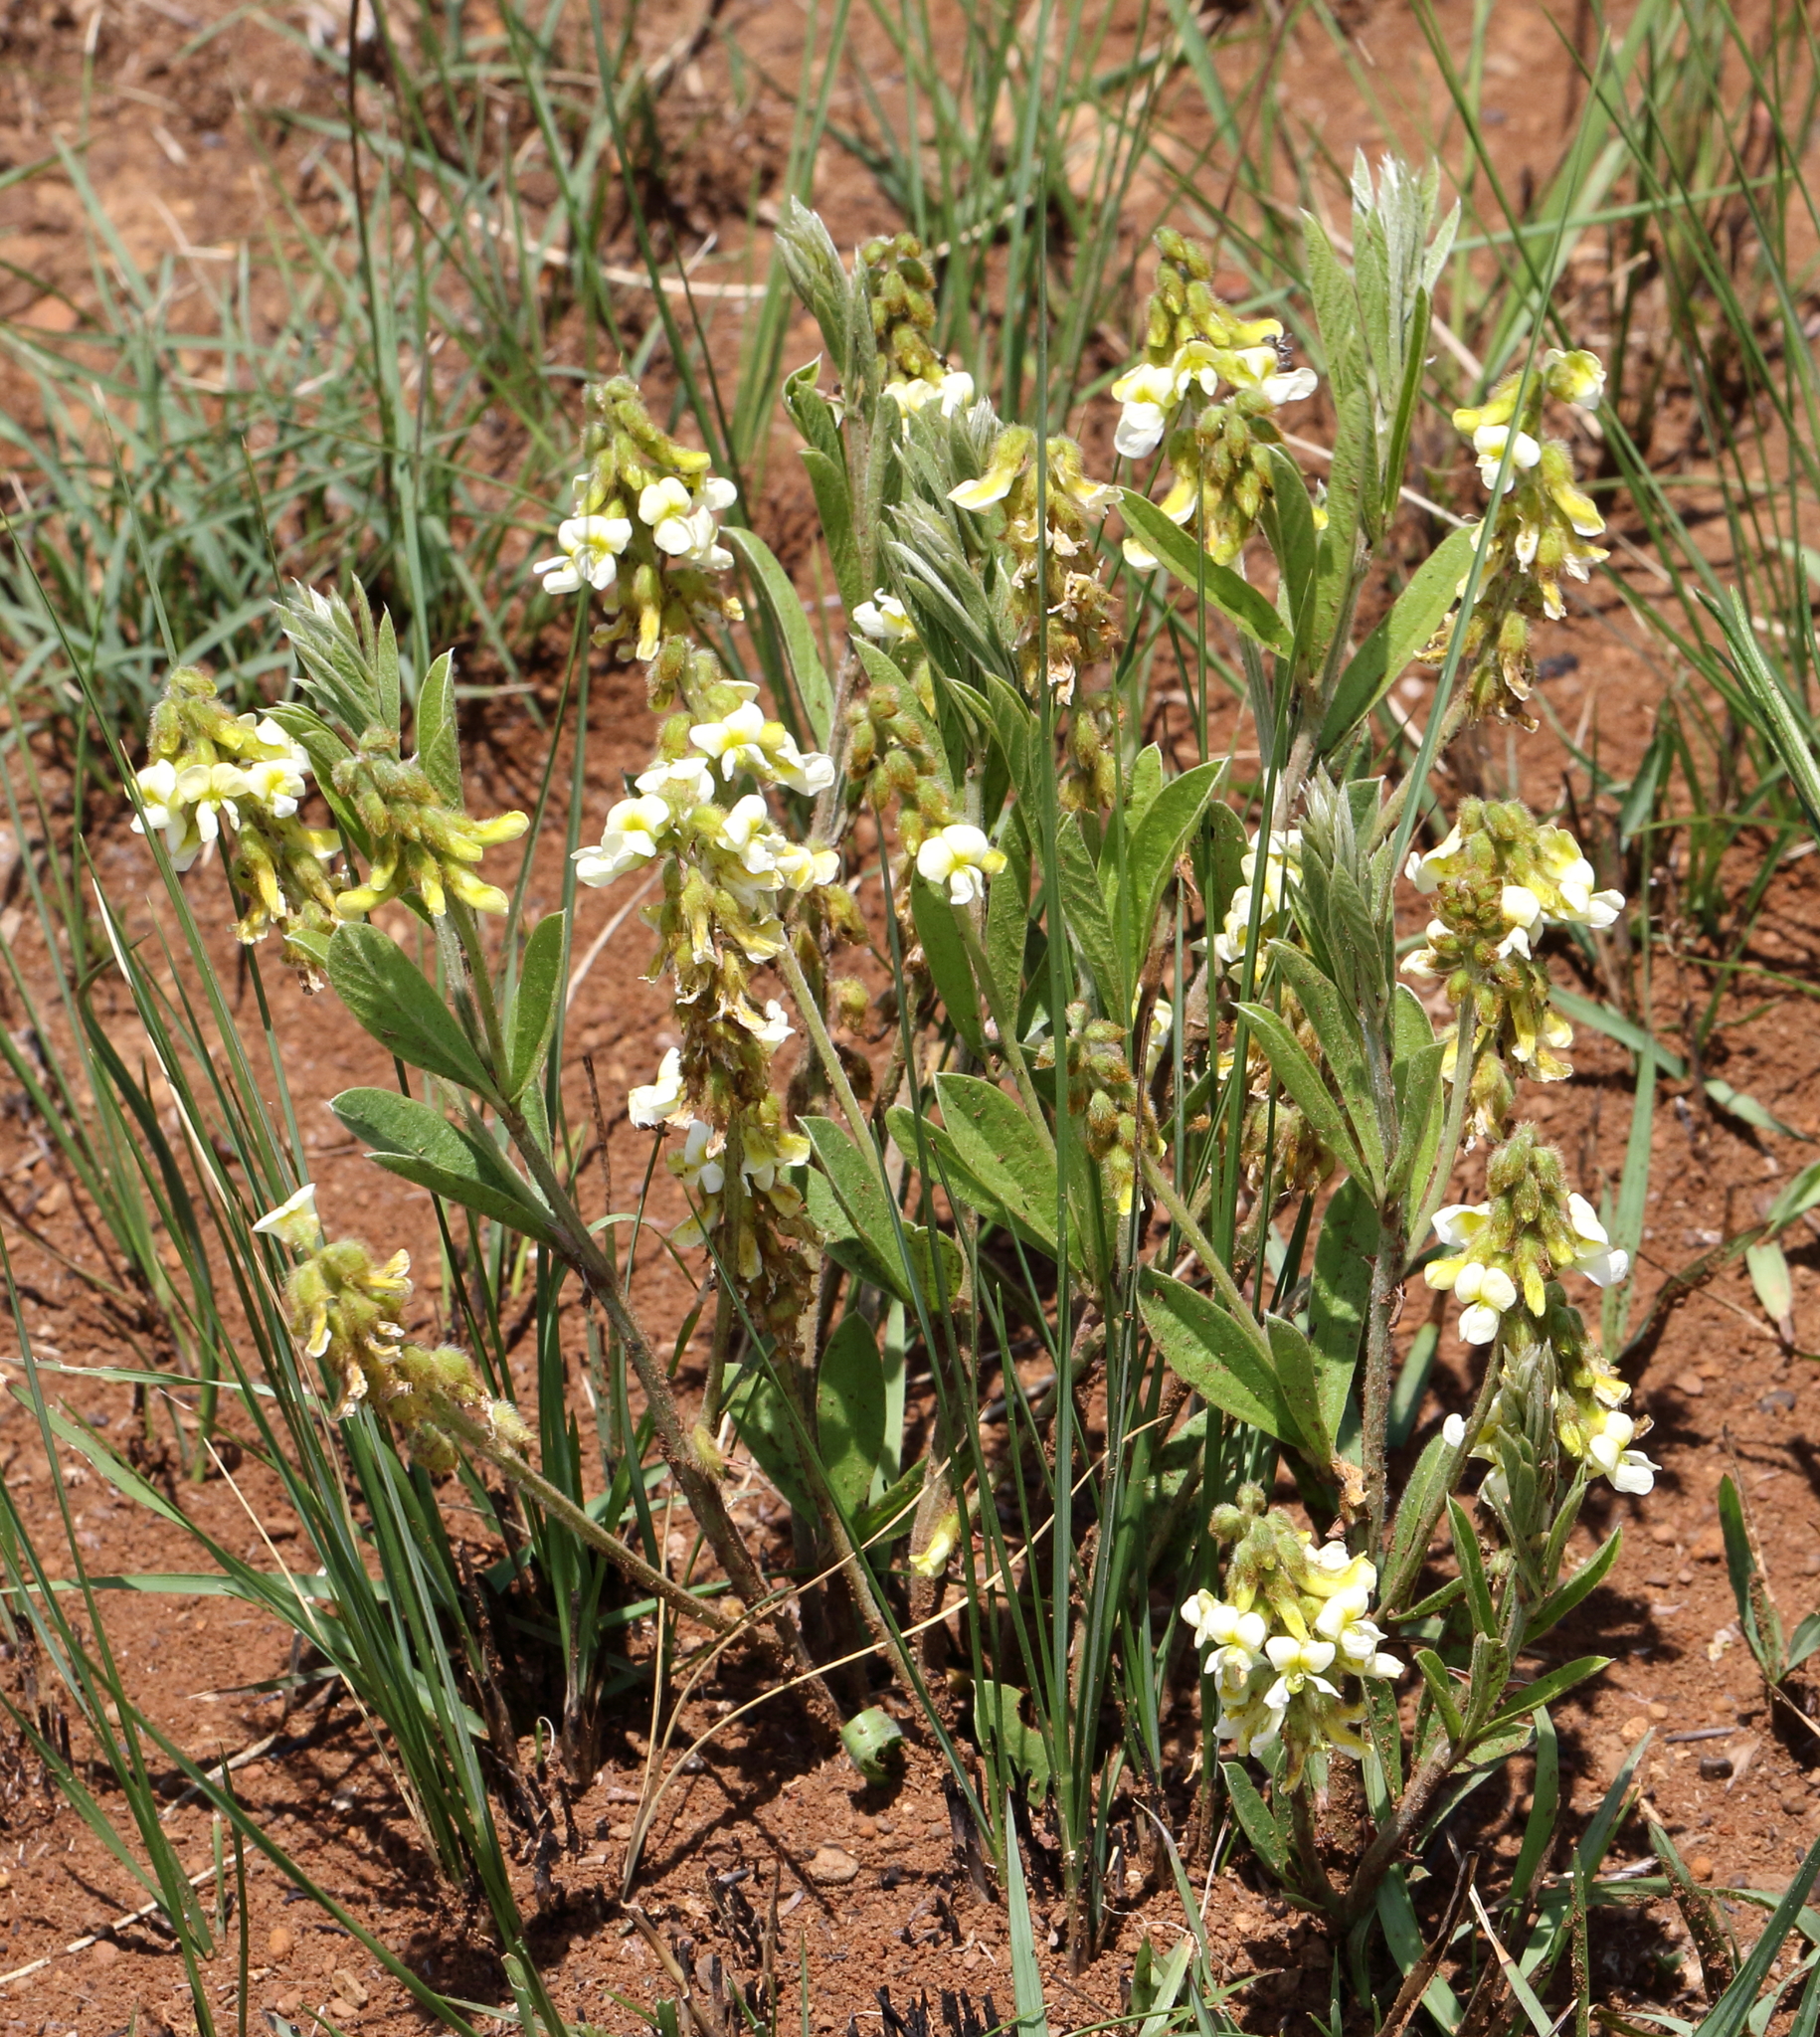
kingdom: Plantae
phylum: Tracheophyta
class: Magnoliopsida
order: Fabales
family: Fabaceae
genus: Eriosema
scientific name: Eriosema kraussianum
